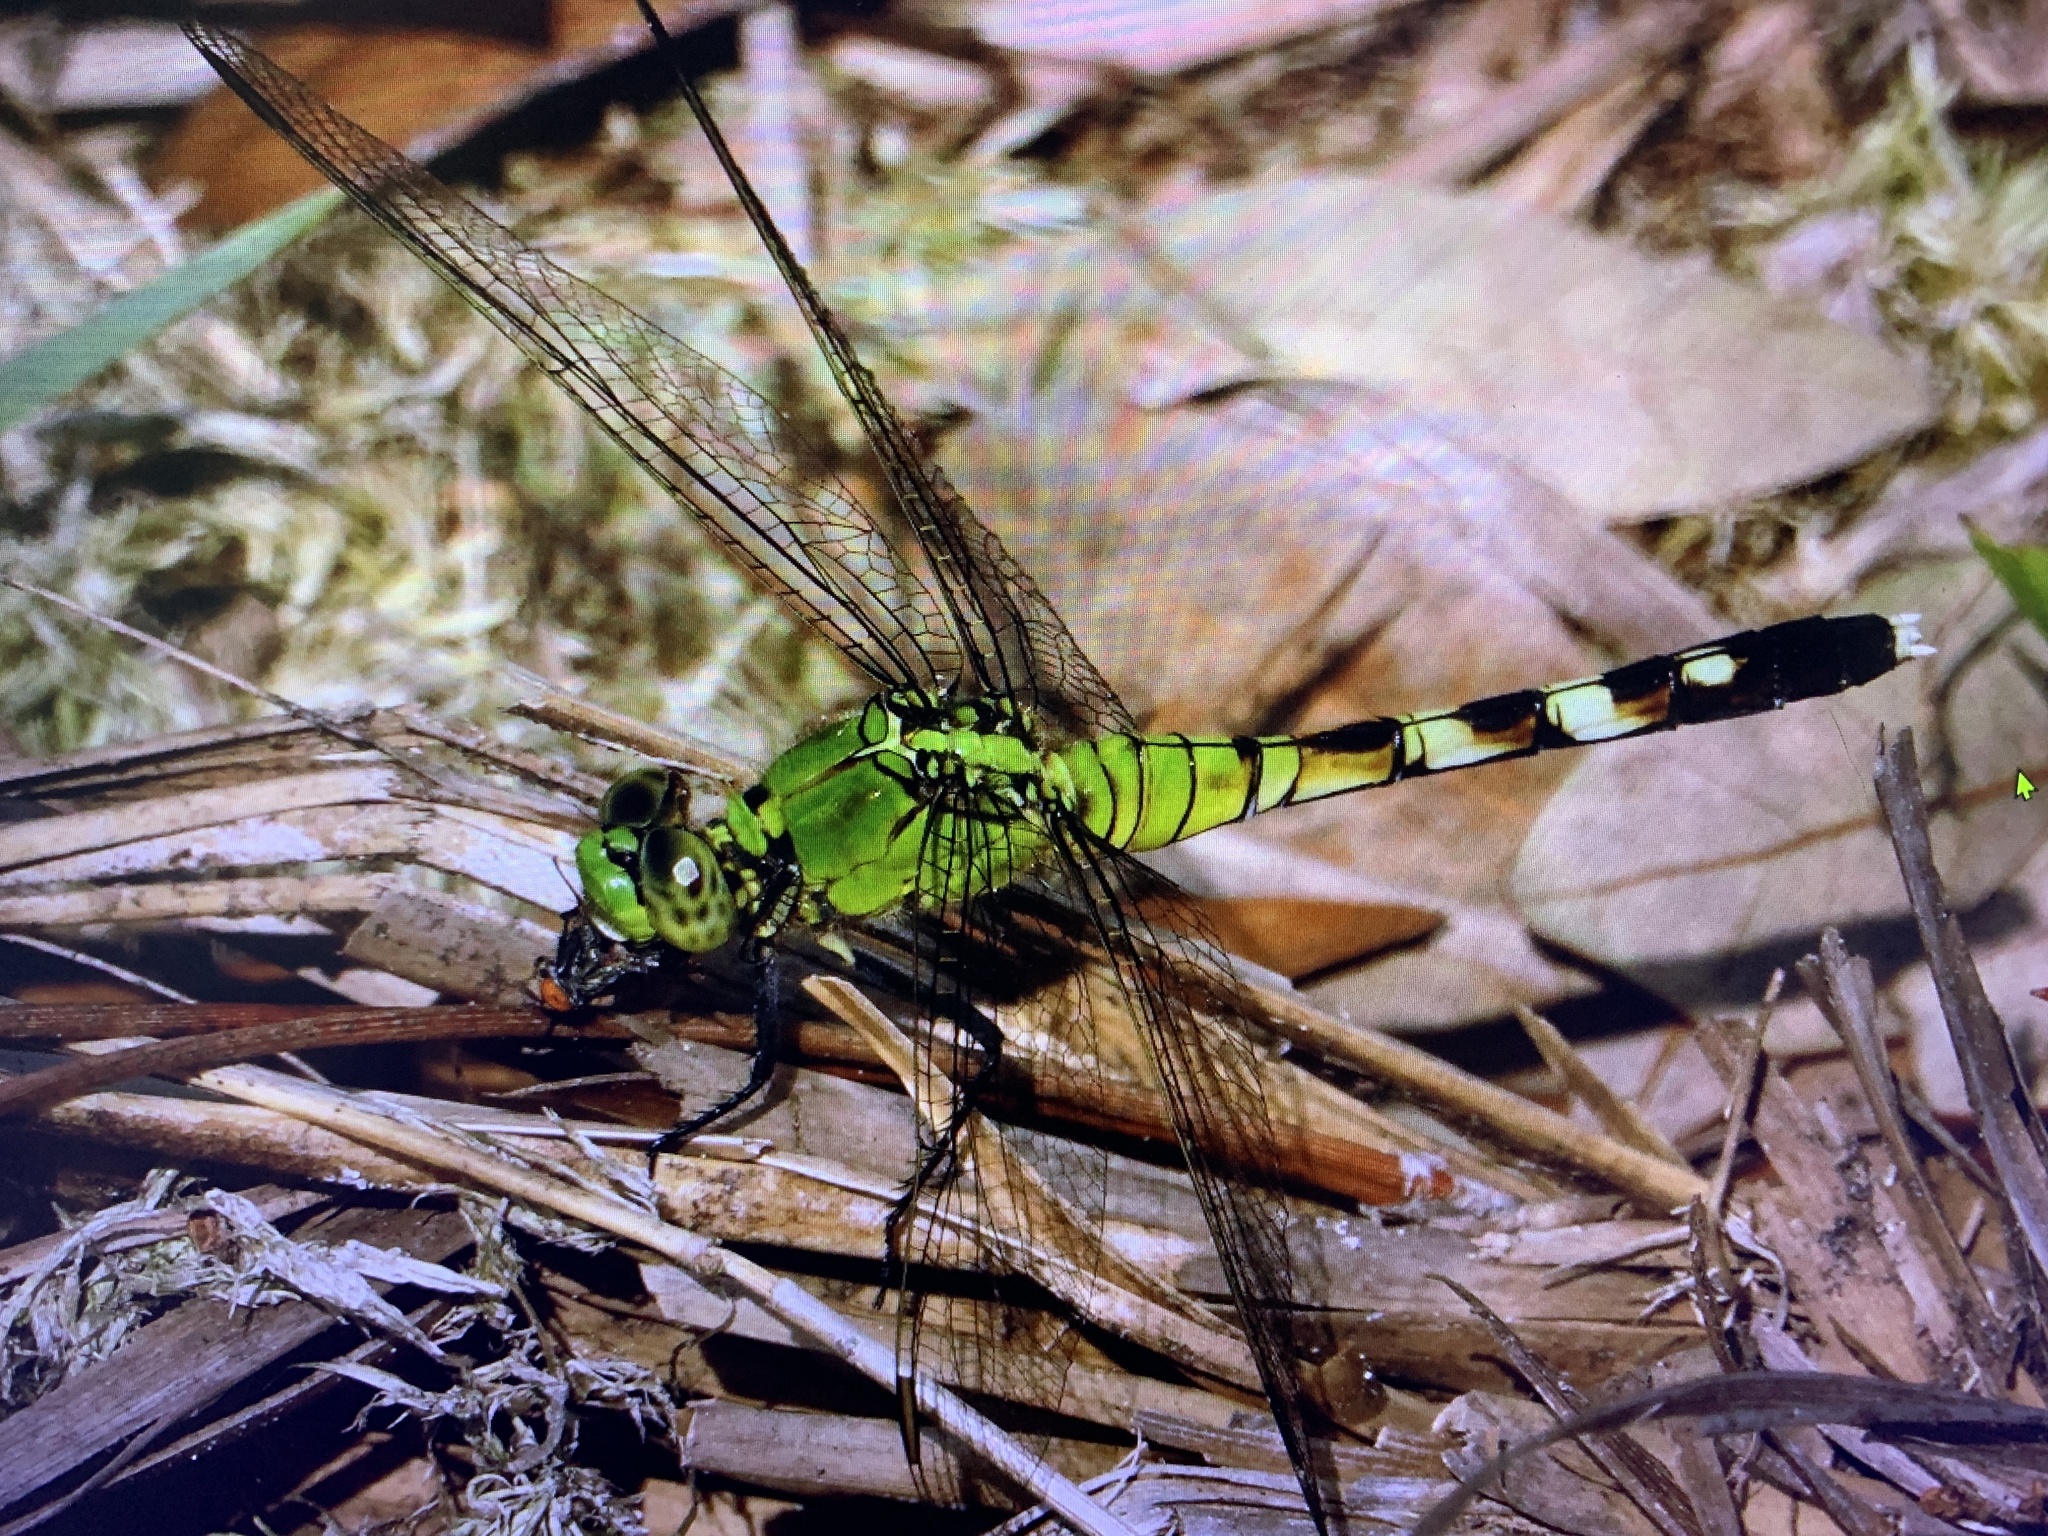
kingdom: Animalia
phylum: Arthropoda
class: Insecta
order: Odonata
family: Libellulidae
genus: Erythemis
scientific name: Erythemis simplicicollis
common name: Eastern pondhawk
